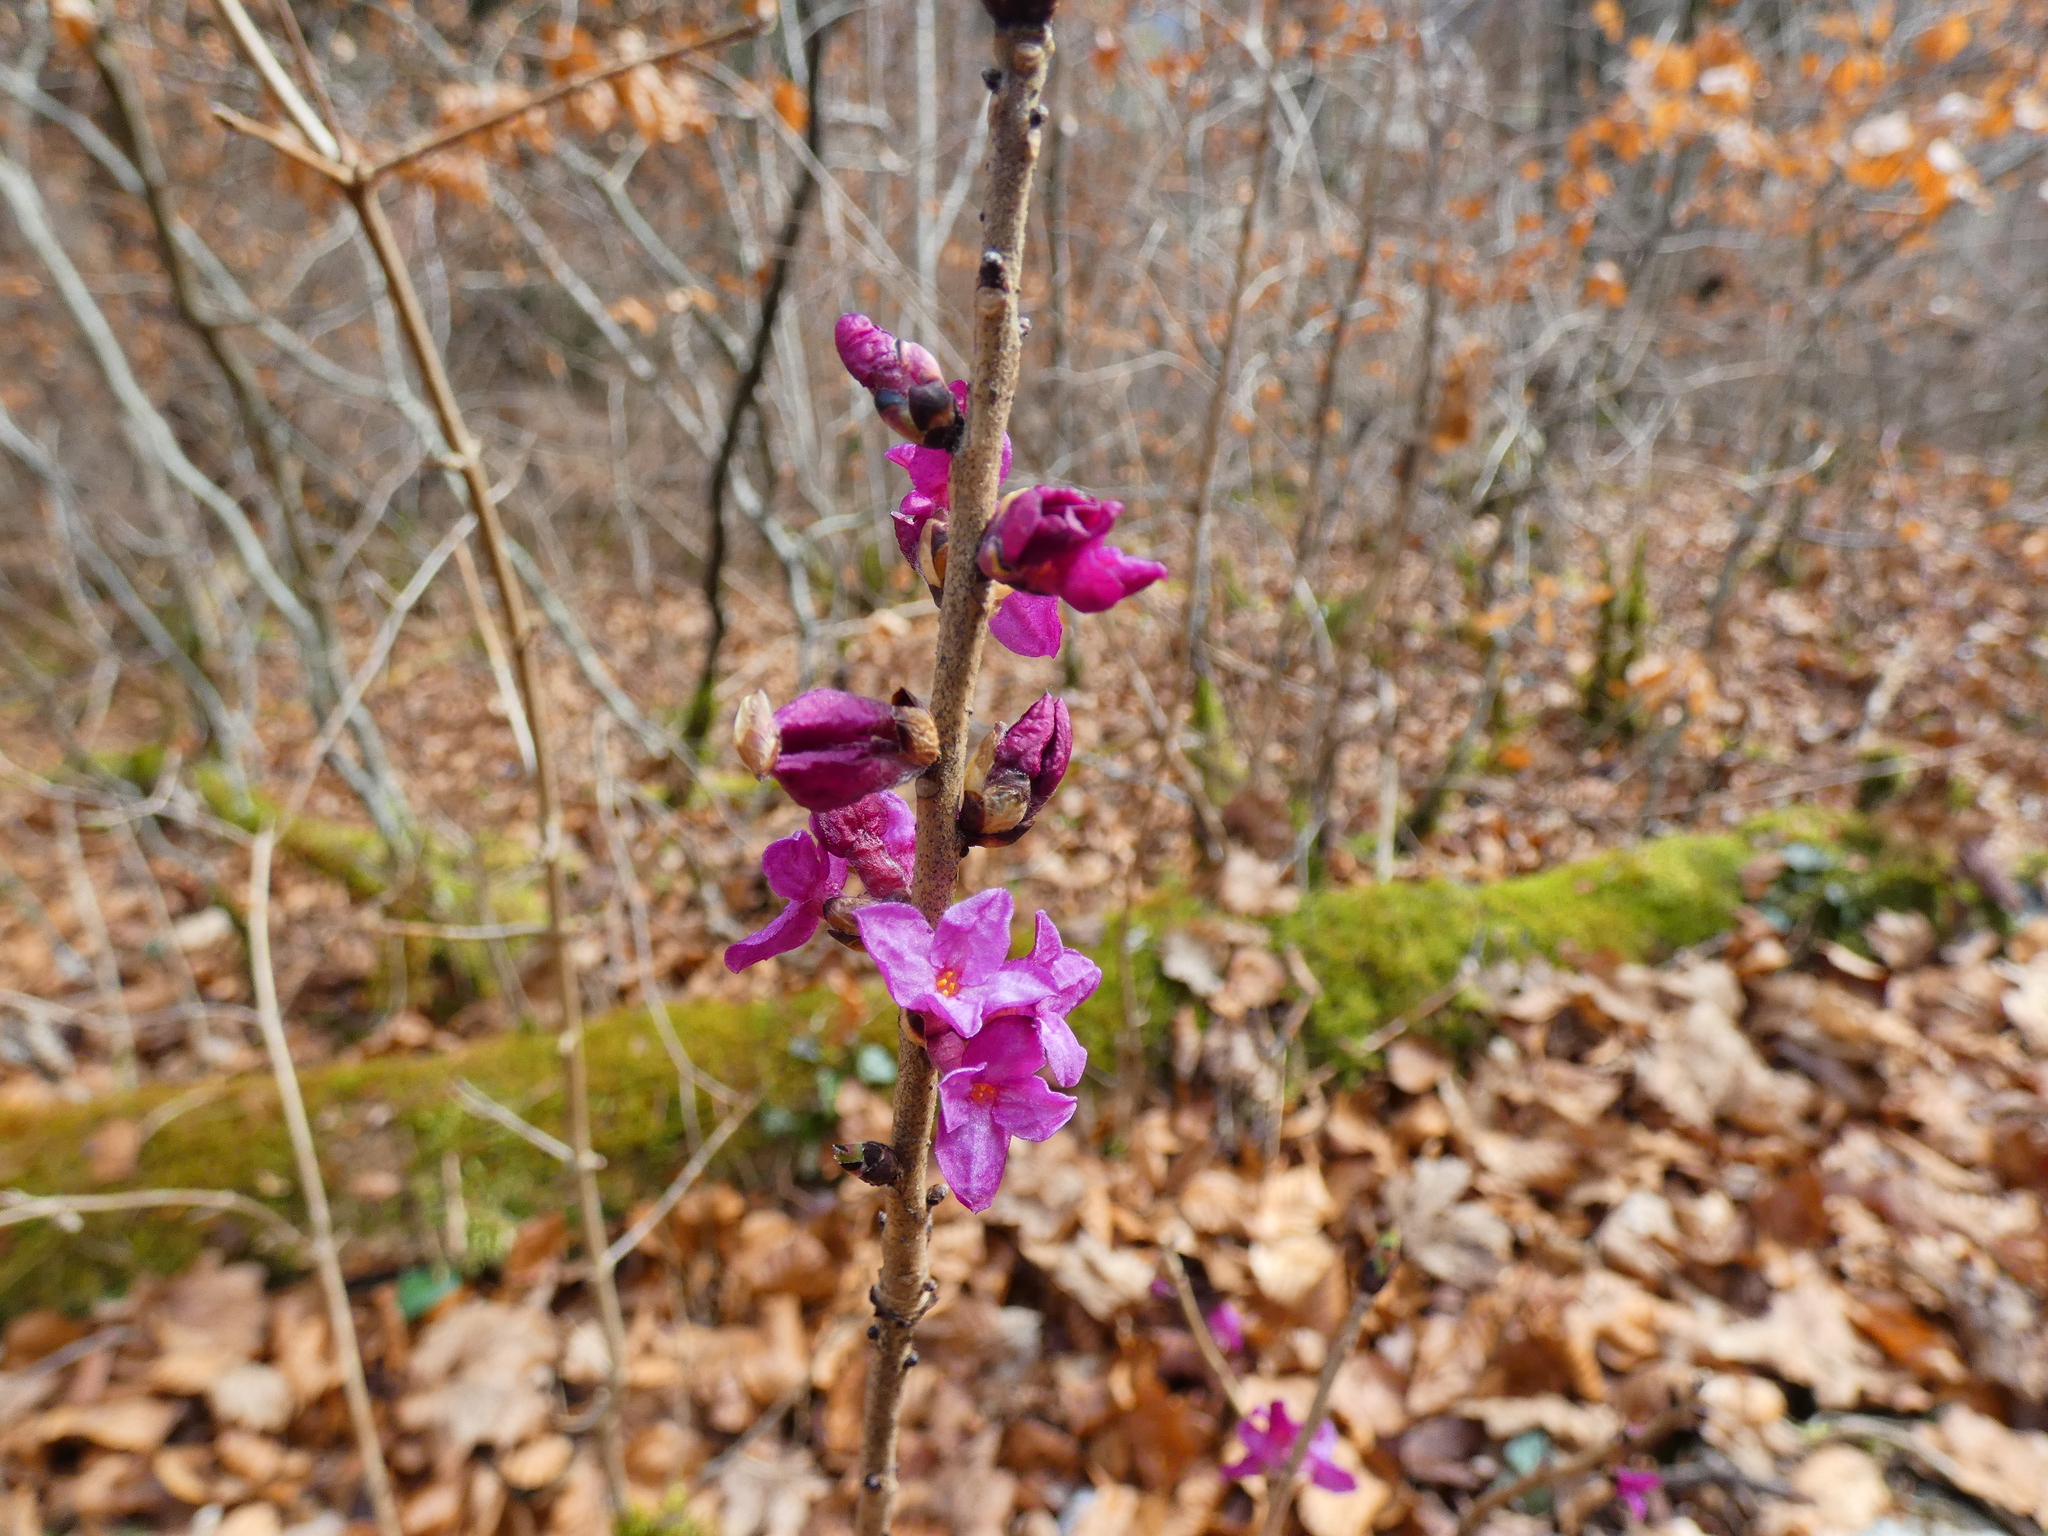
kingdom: Plantae
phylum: Tracheophyta
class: Magnoliopsida
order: Malvales
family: Thymelaeaceae
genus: Daphne
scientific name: Daphne mezereum
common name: Mezereon
